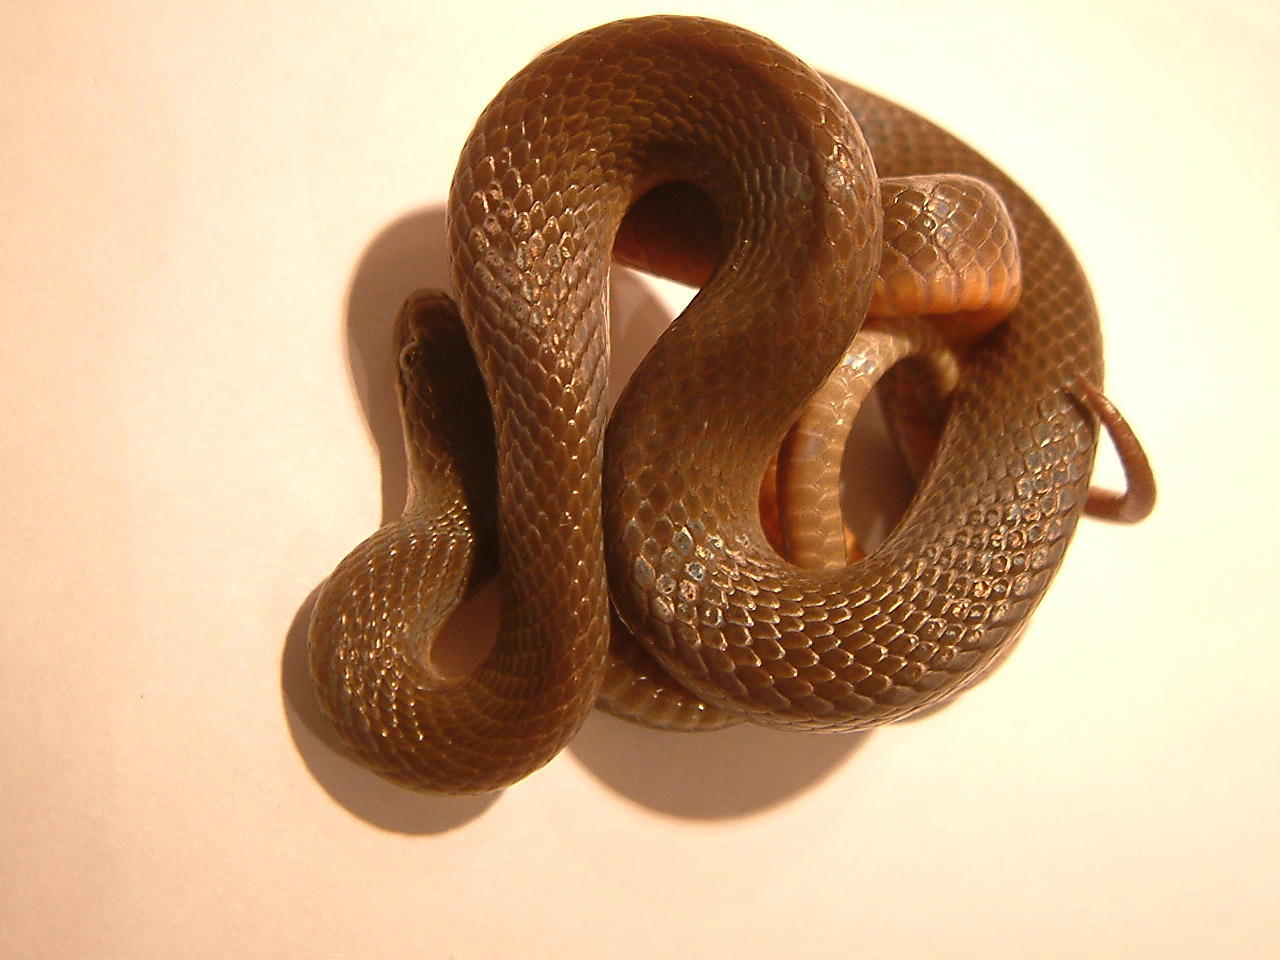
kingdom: Animalia
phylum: Chordata
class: Squamata
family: Lamprophiidae
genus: Lycodonomorphus
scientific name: Lycodonomorphus rufulus
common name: Brown water snake
